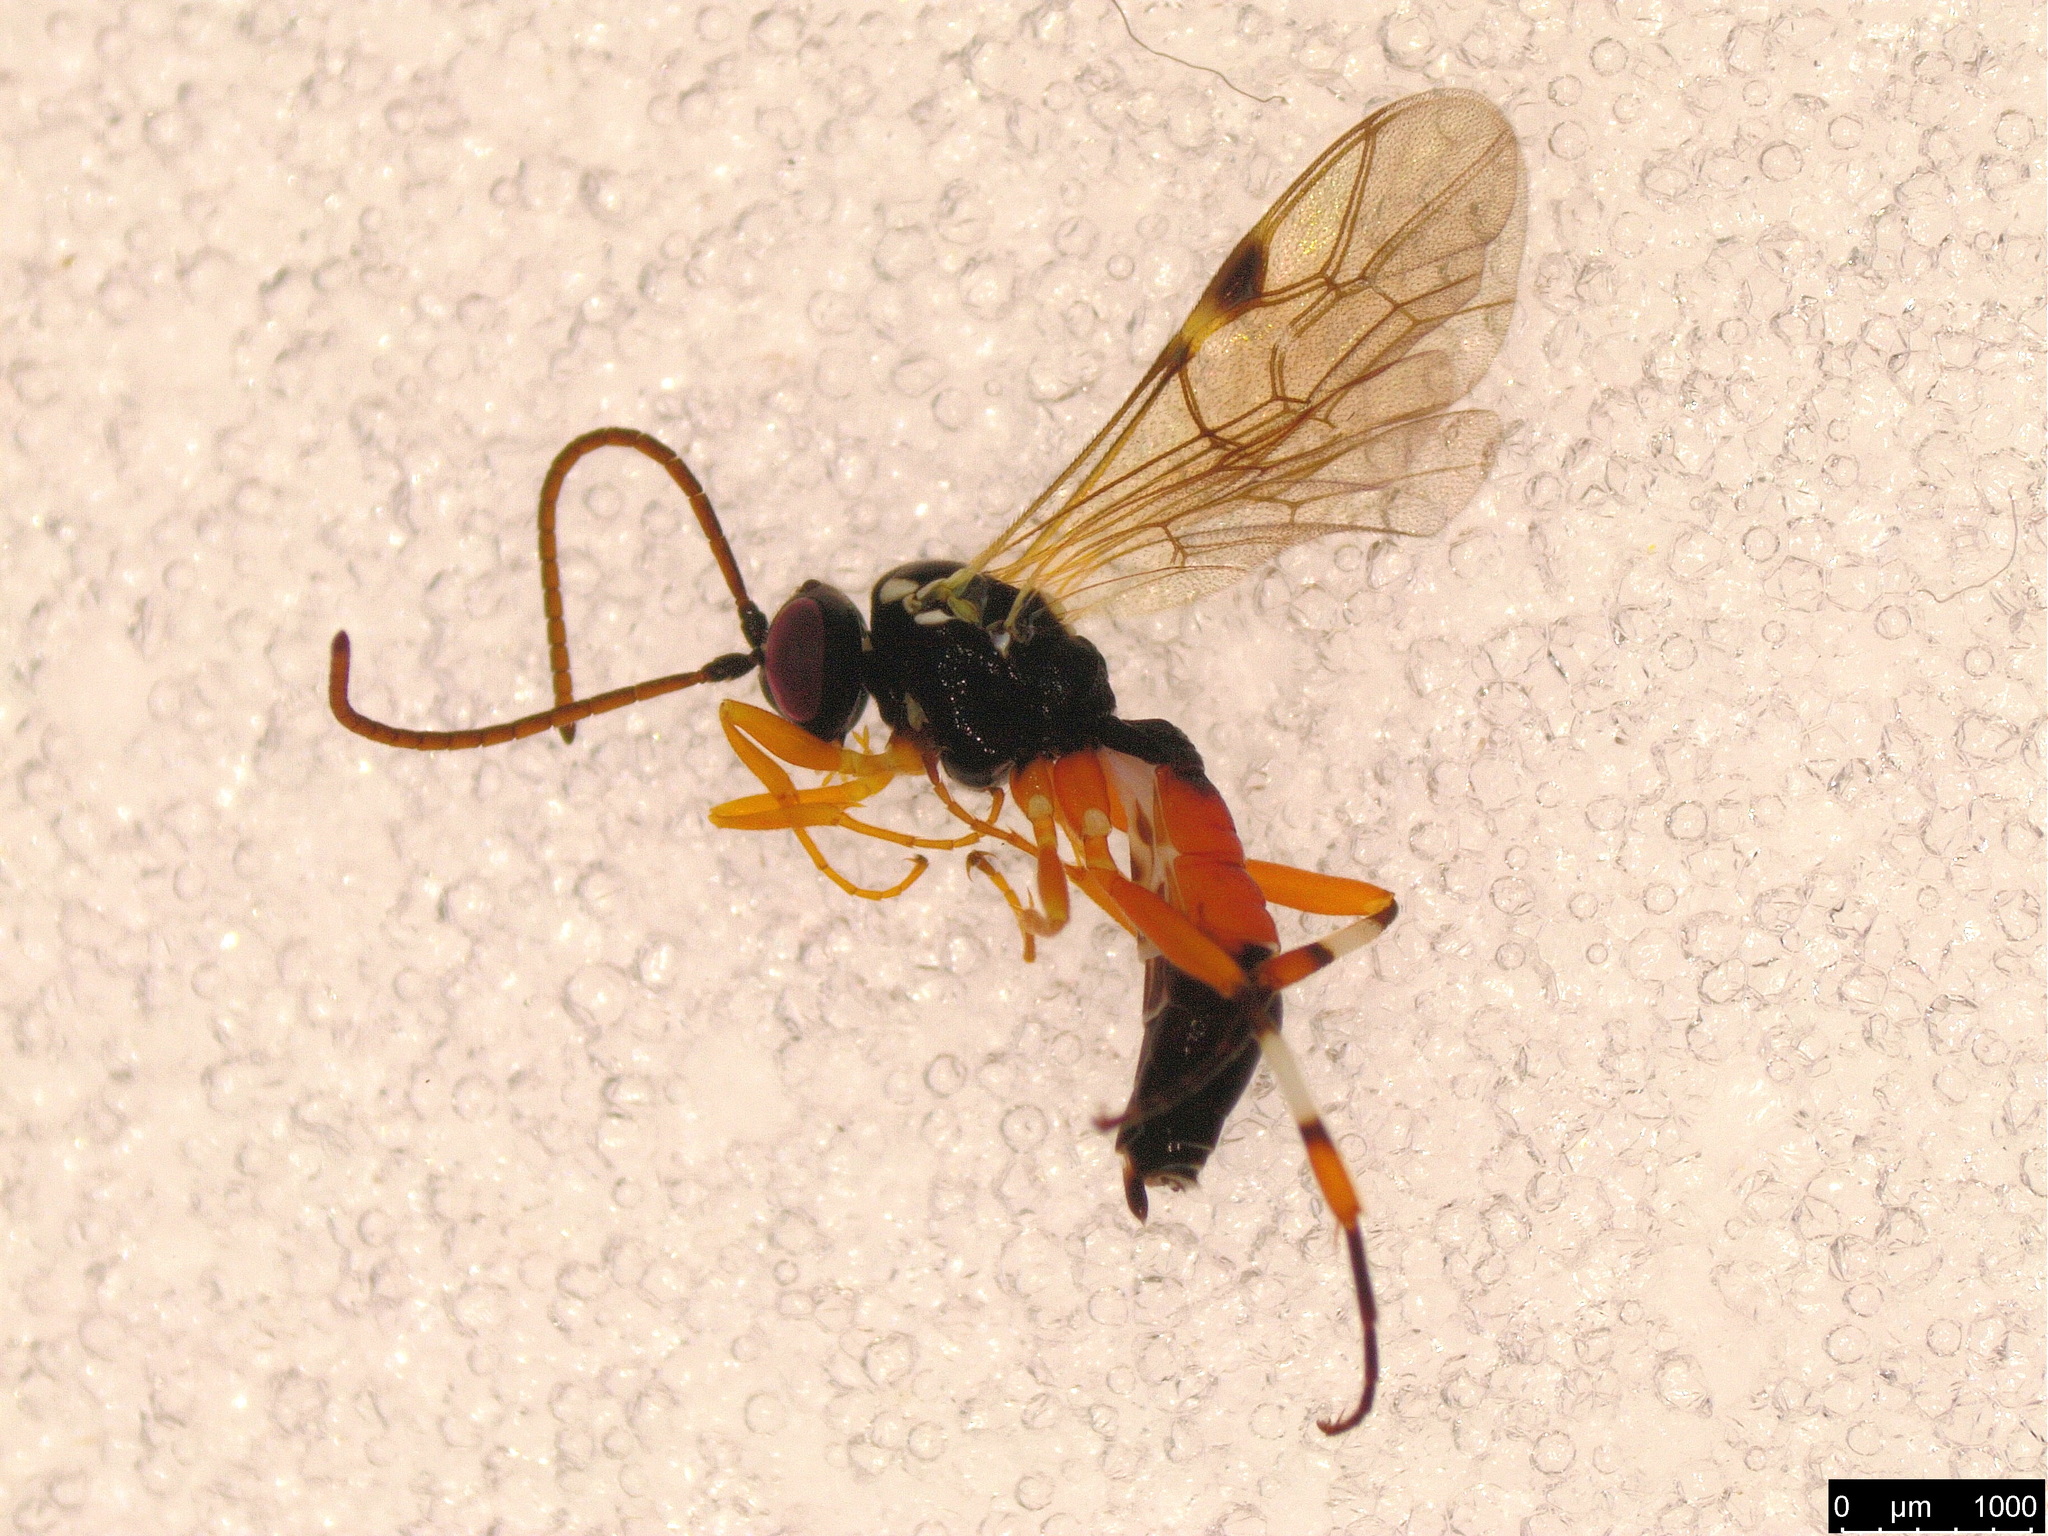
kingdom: Animalia
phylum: Arthropoda
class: Insecta
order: Hymenoptera
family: Ichneumonidae
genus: Diplazon
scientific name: Diplazon laetatorius
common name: Parasitoid wasp
